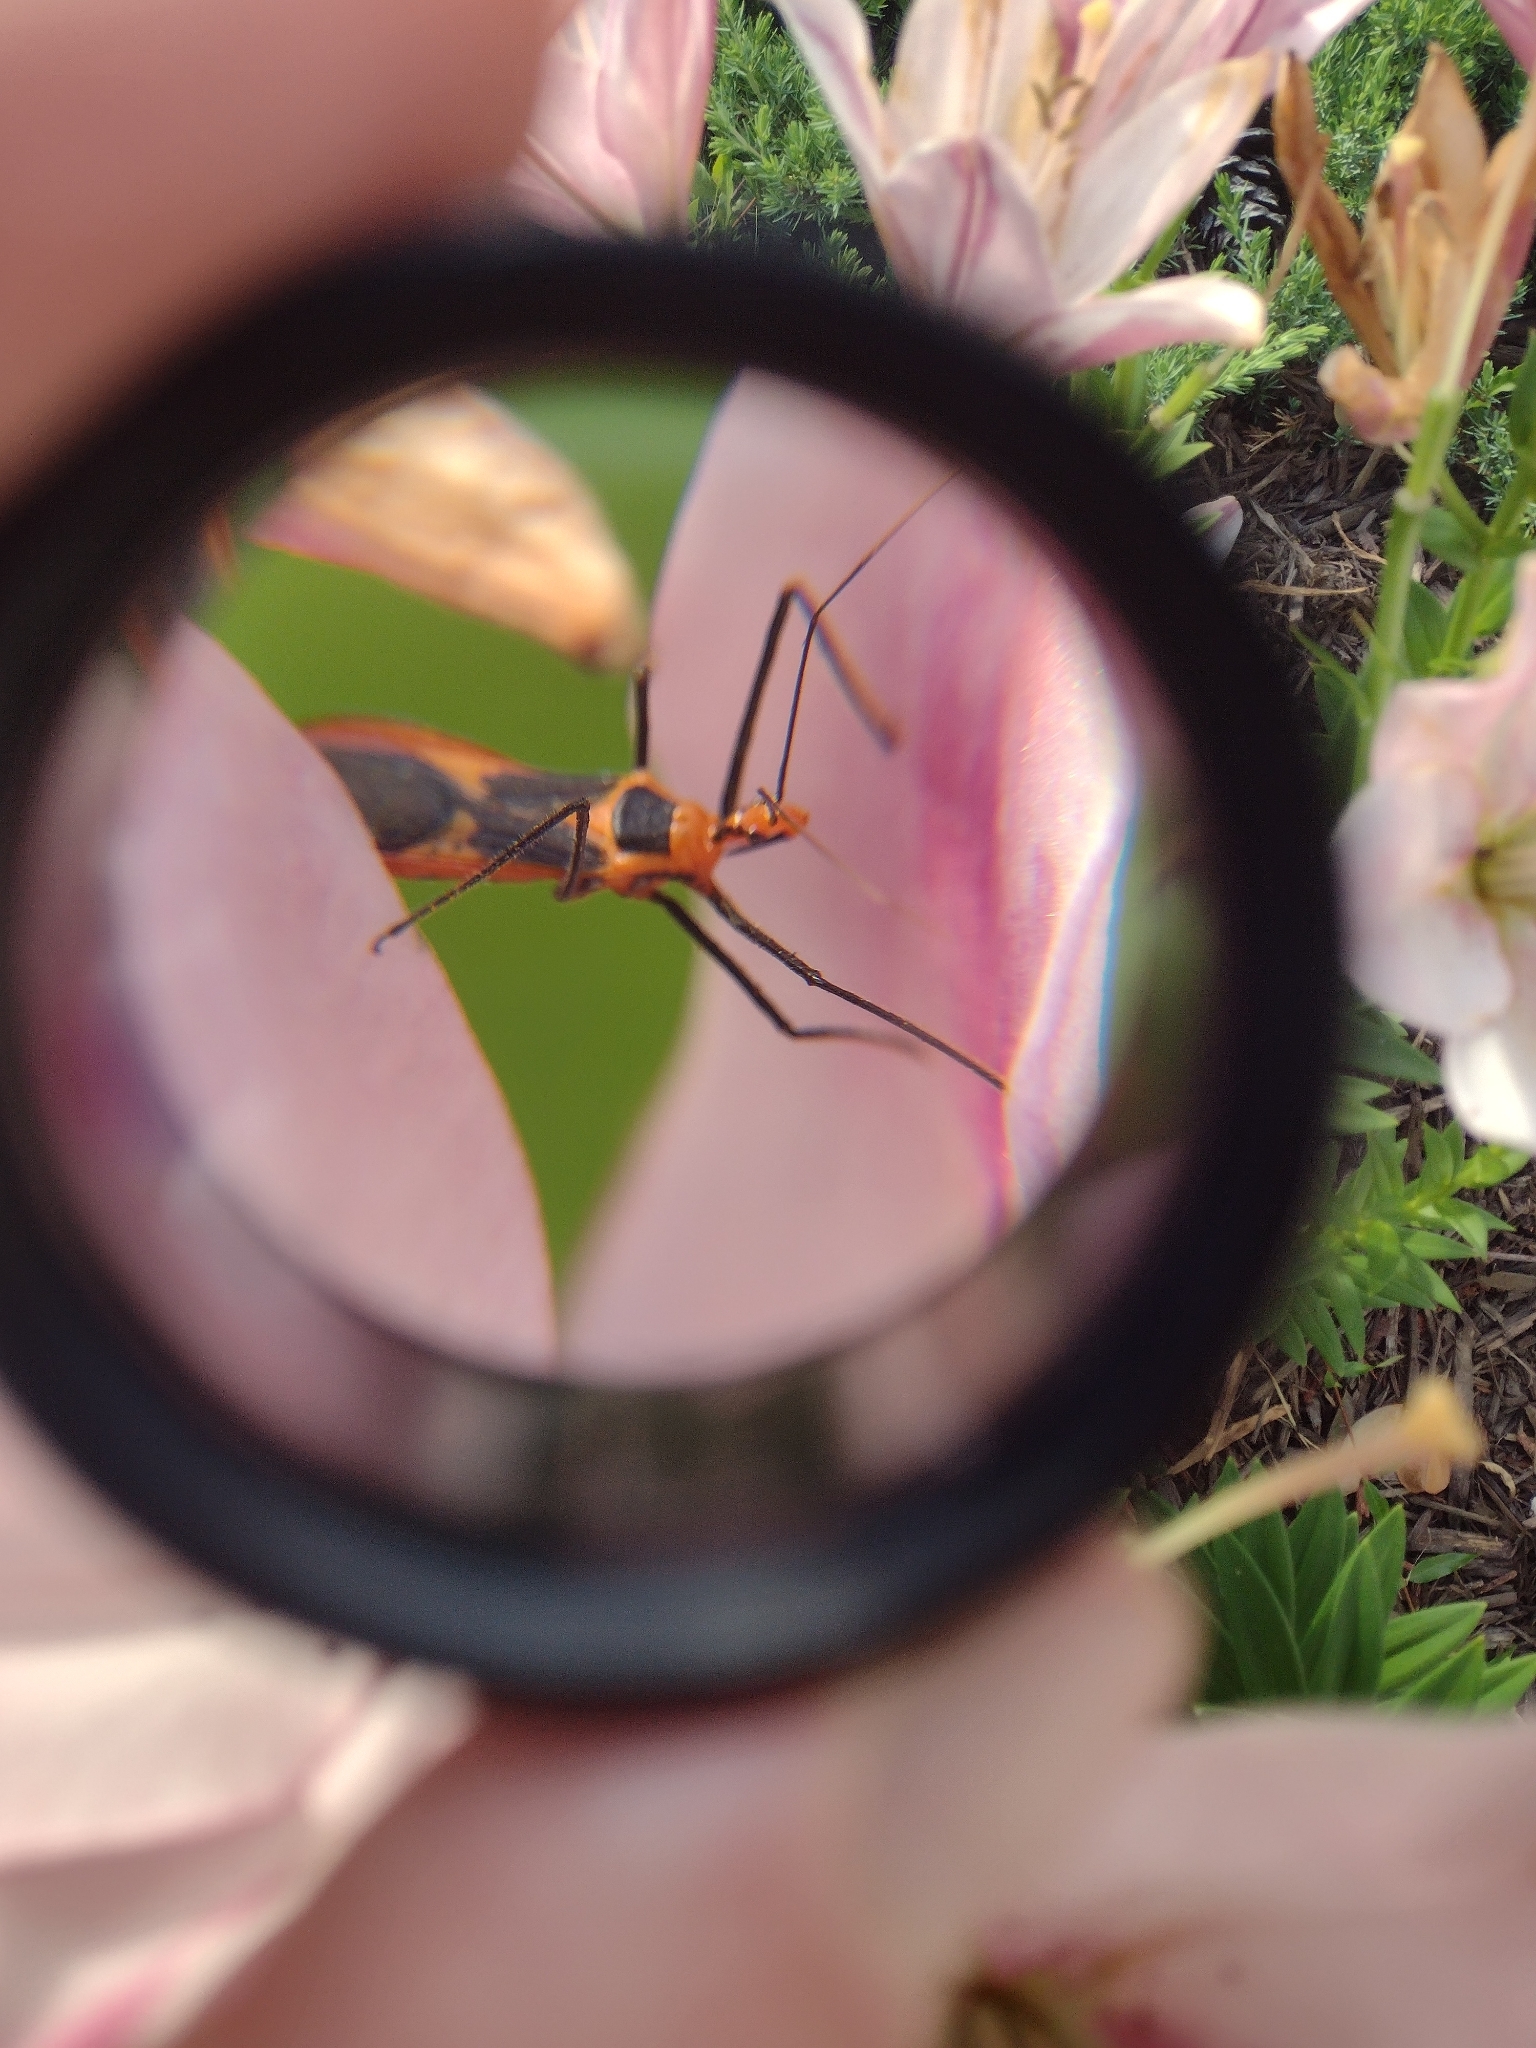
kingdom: Animalia
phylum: Arthropoda
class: Insecta
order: Hemiptera
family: Reduviidae
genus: Zelus
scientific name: Zelus longipes
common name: Milkweed assassin bug
